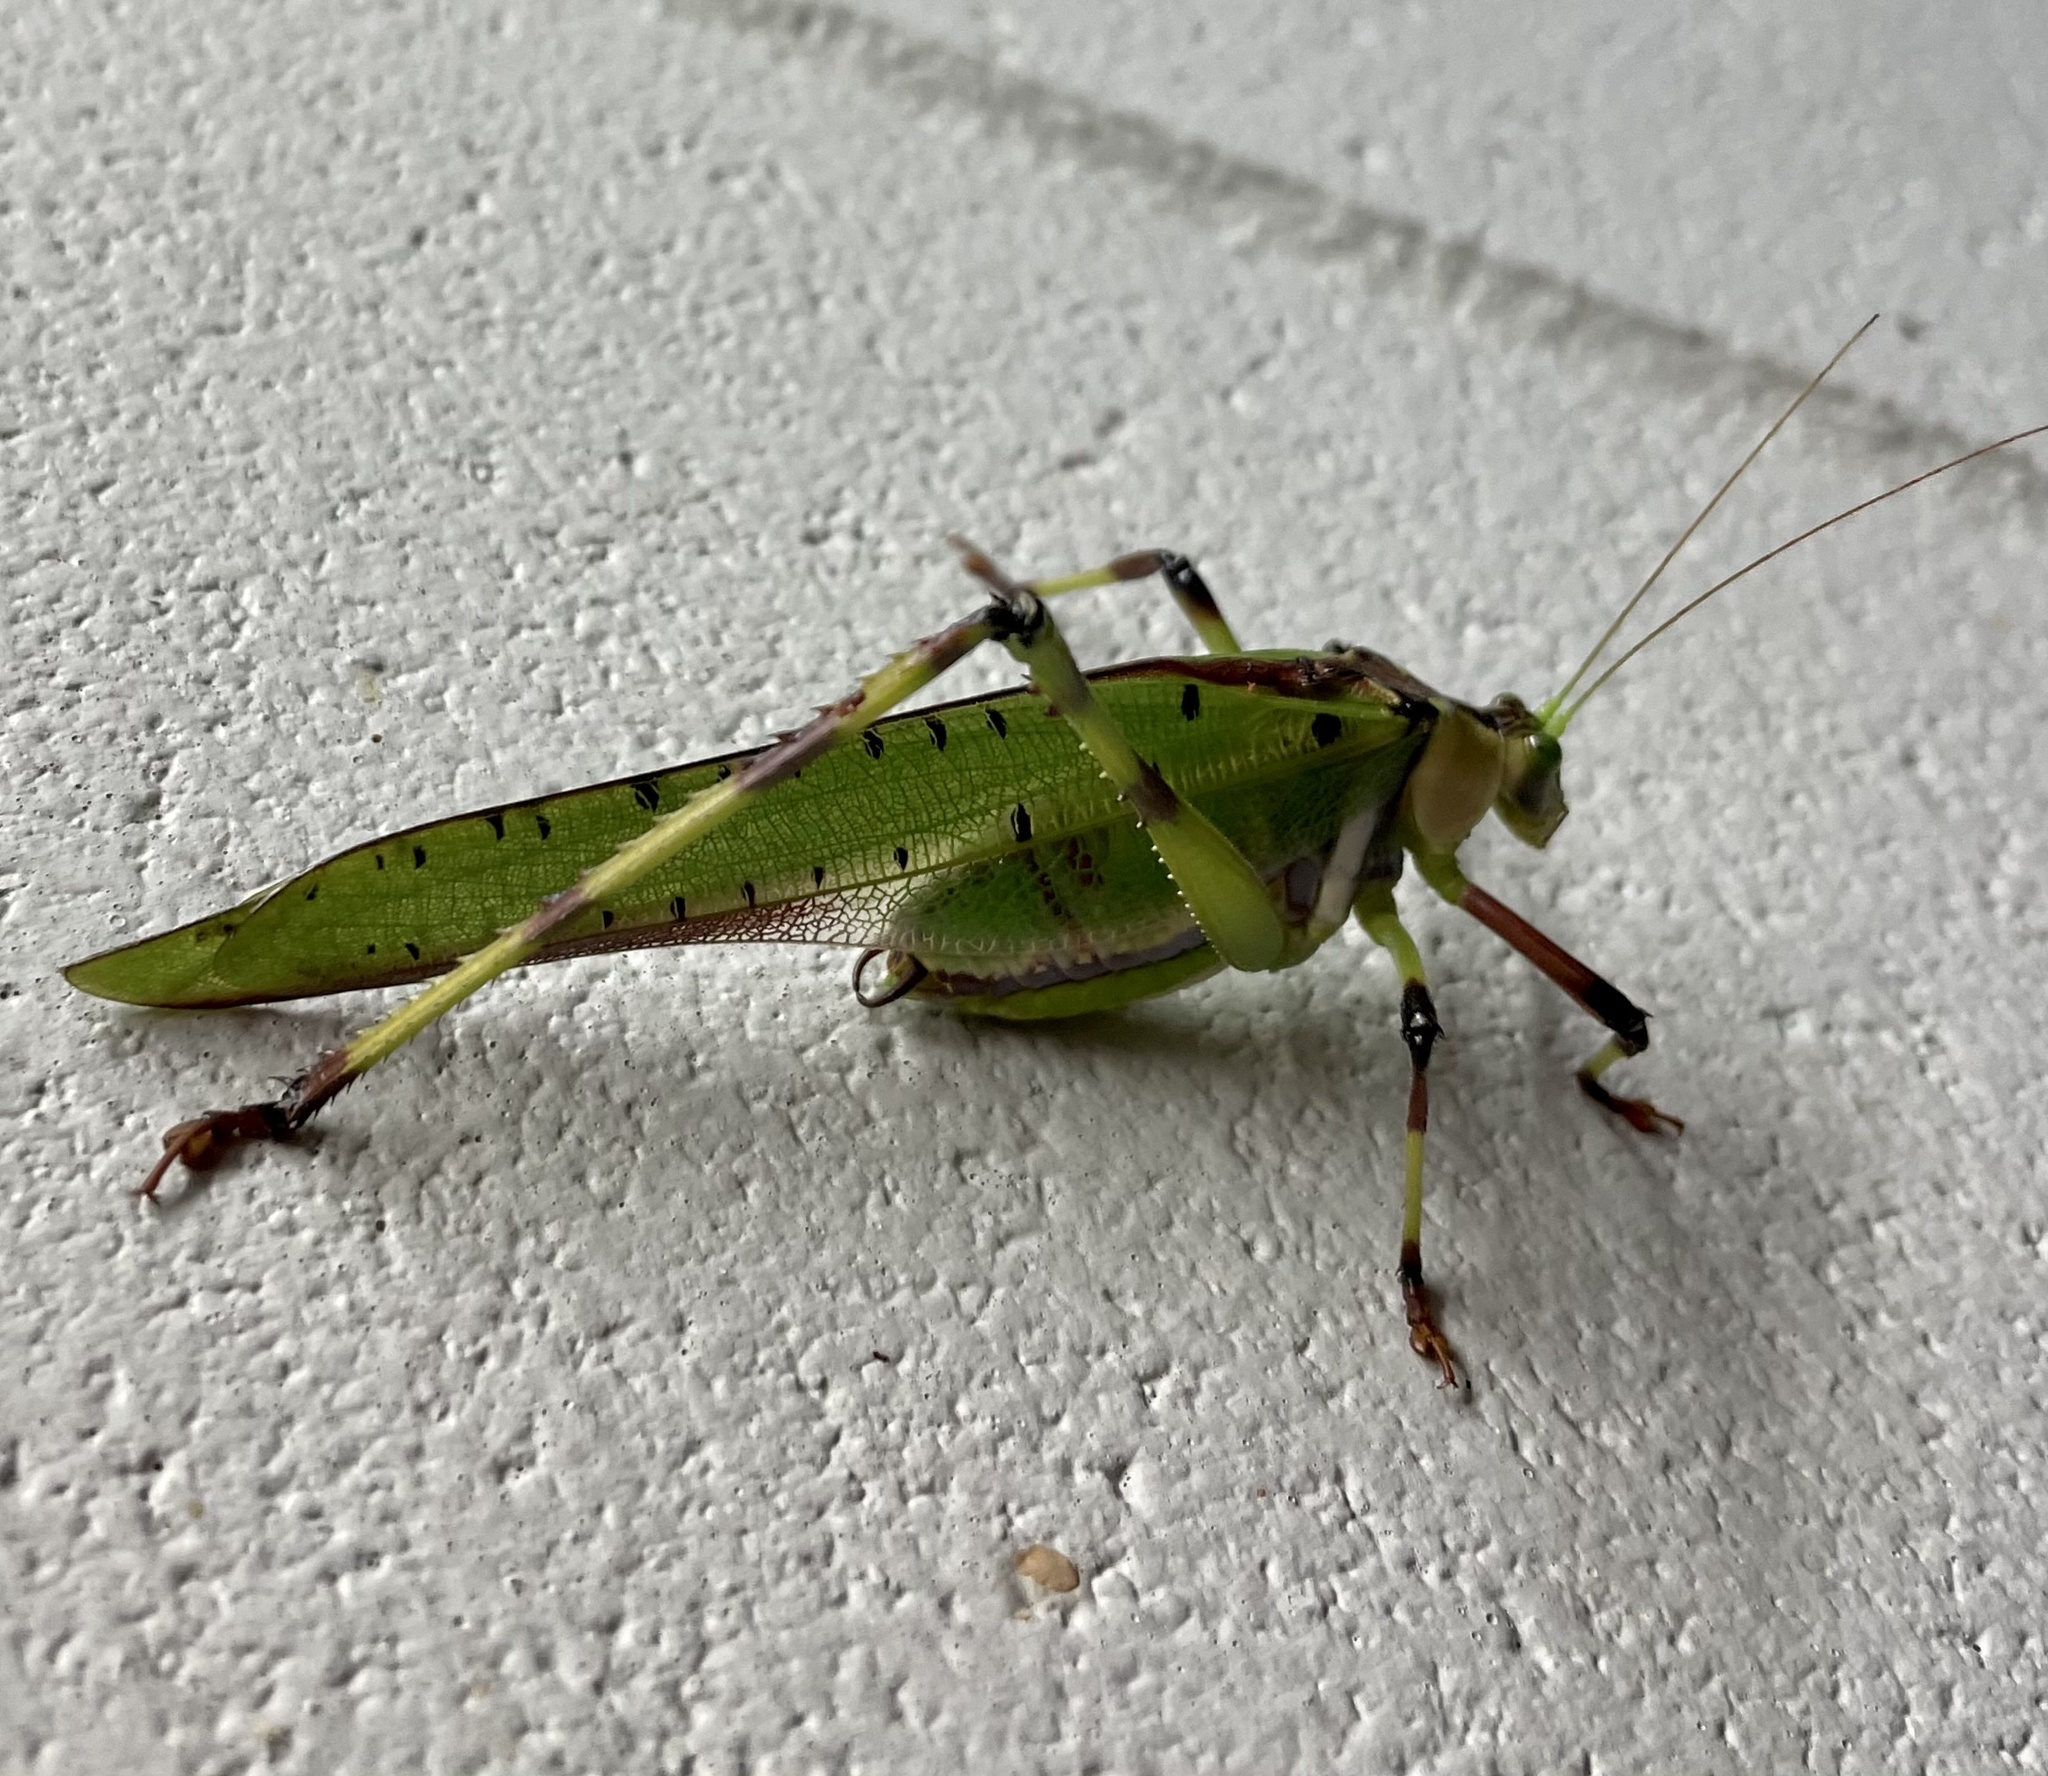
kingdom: Animalia
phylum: Arthropoda
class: Insecta
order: Orthoptera
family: Tettigoniidae
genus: Ephippitytha
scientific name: Ephippitytha trigintiduoguttata
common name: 32-spotted katydid
